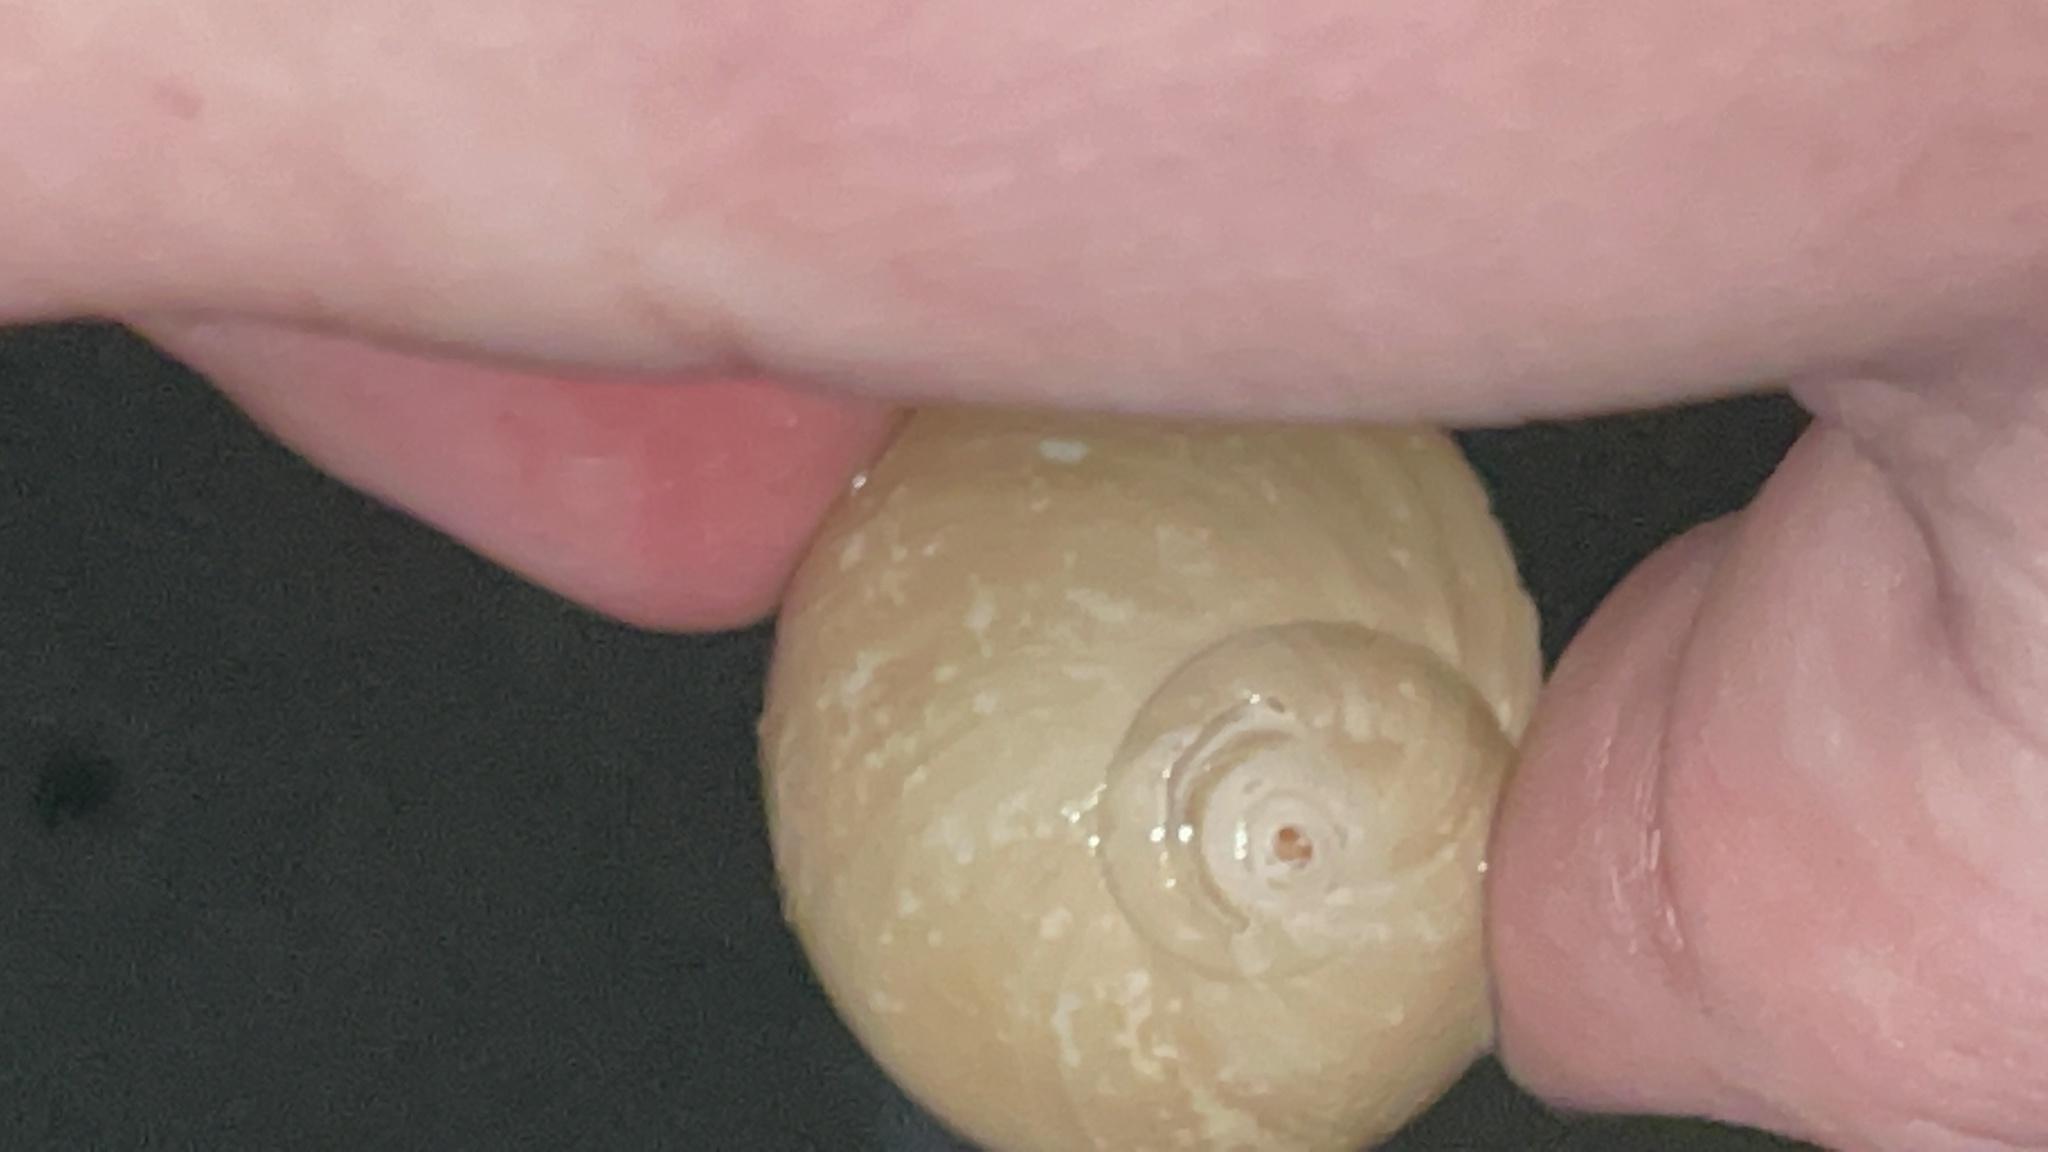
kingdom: Animalia
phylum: Mollusca
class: Gastropoda
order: Littorinimorpha
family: Naticidae
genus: Neverita
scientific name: Neverita duplicata
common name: Lobed moonsnail
